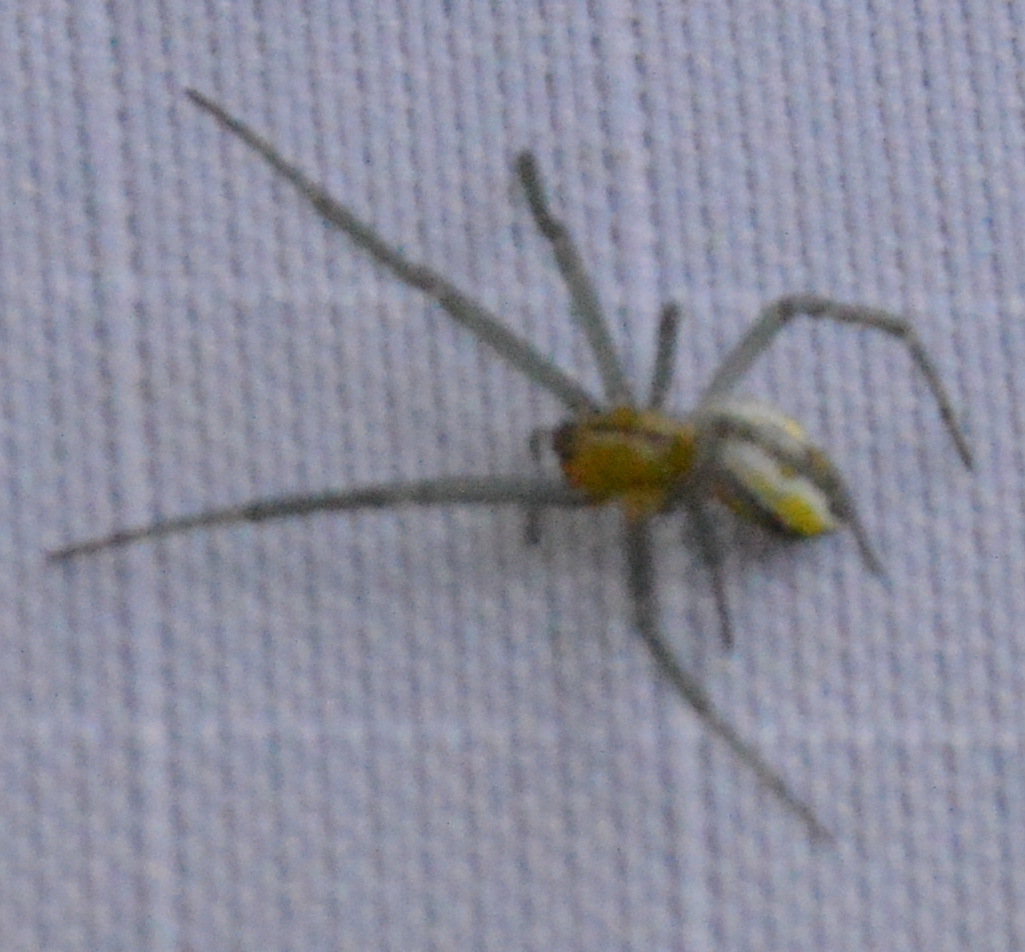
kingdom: Animalia
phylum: Arthropoda
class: Arachnida
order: Araneae
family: Araneidae
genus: Mecynogea
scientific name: Mecynogea lemniscata
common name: Orb weavers
